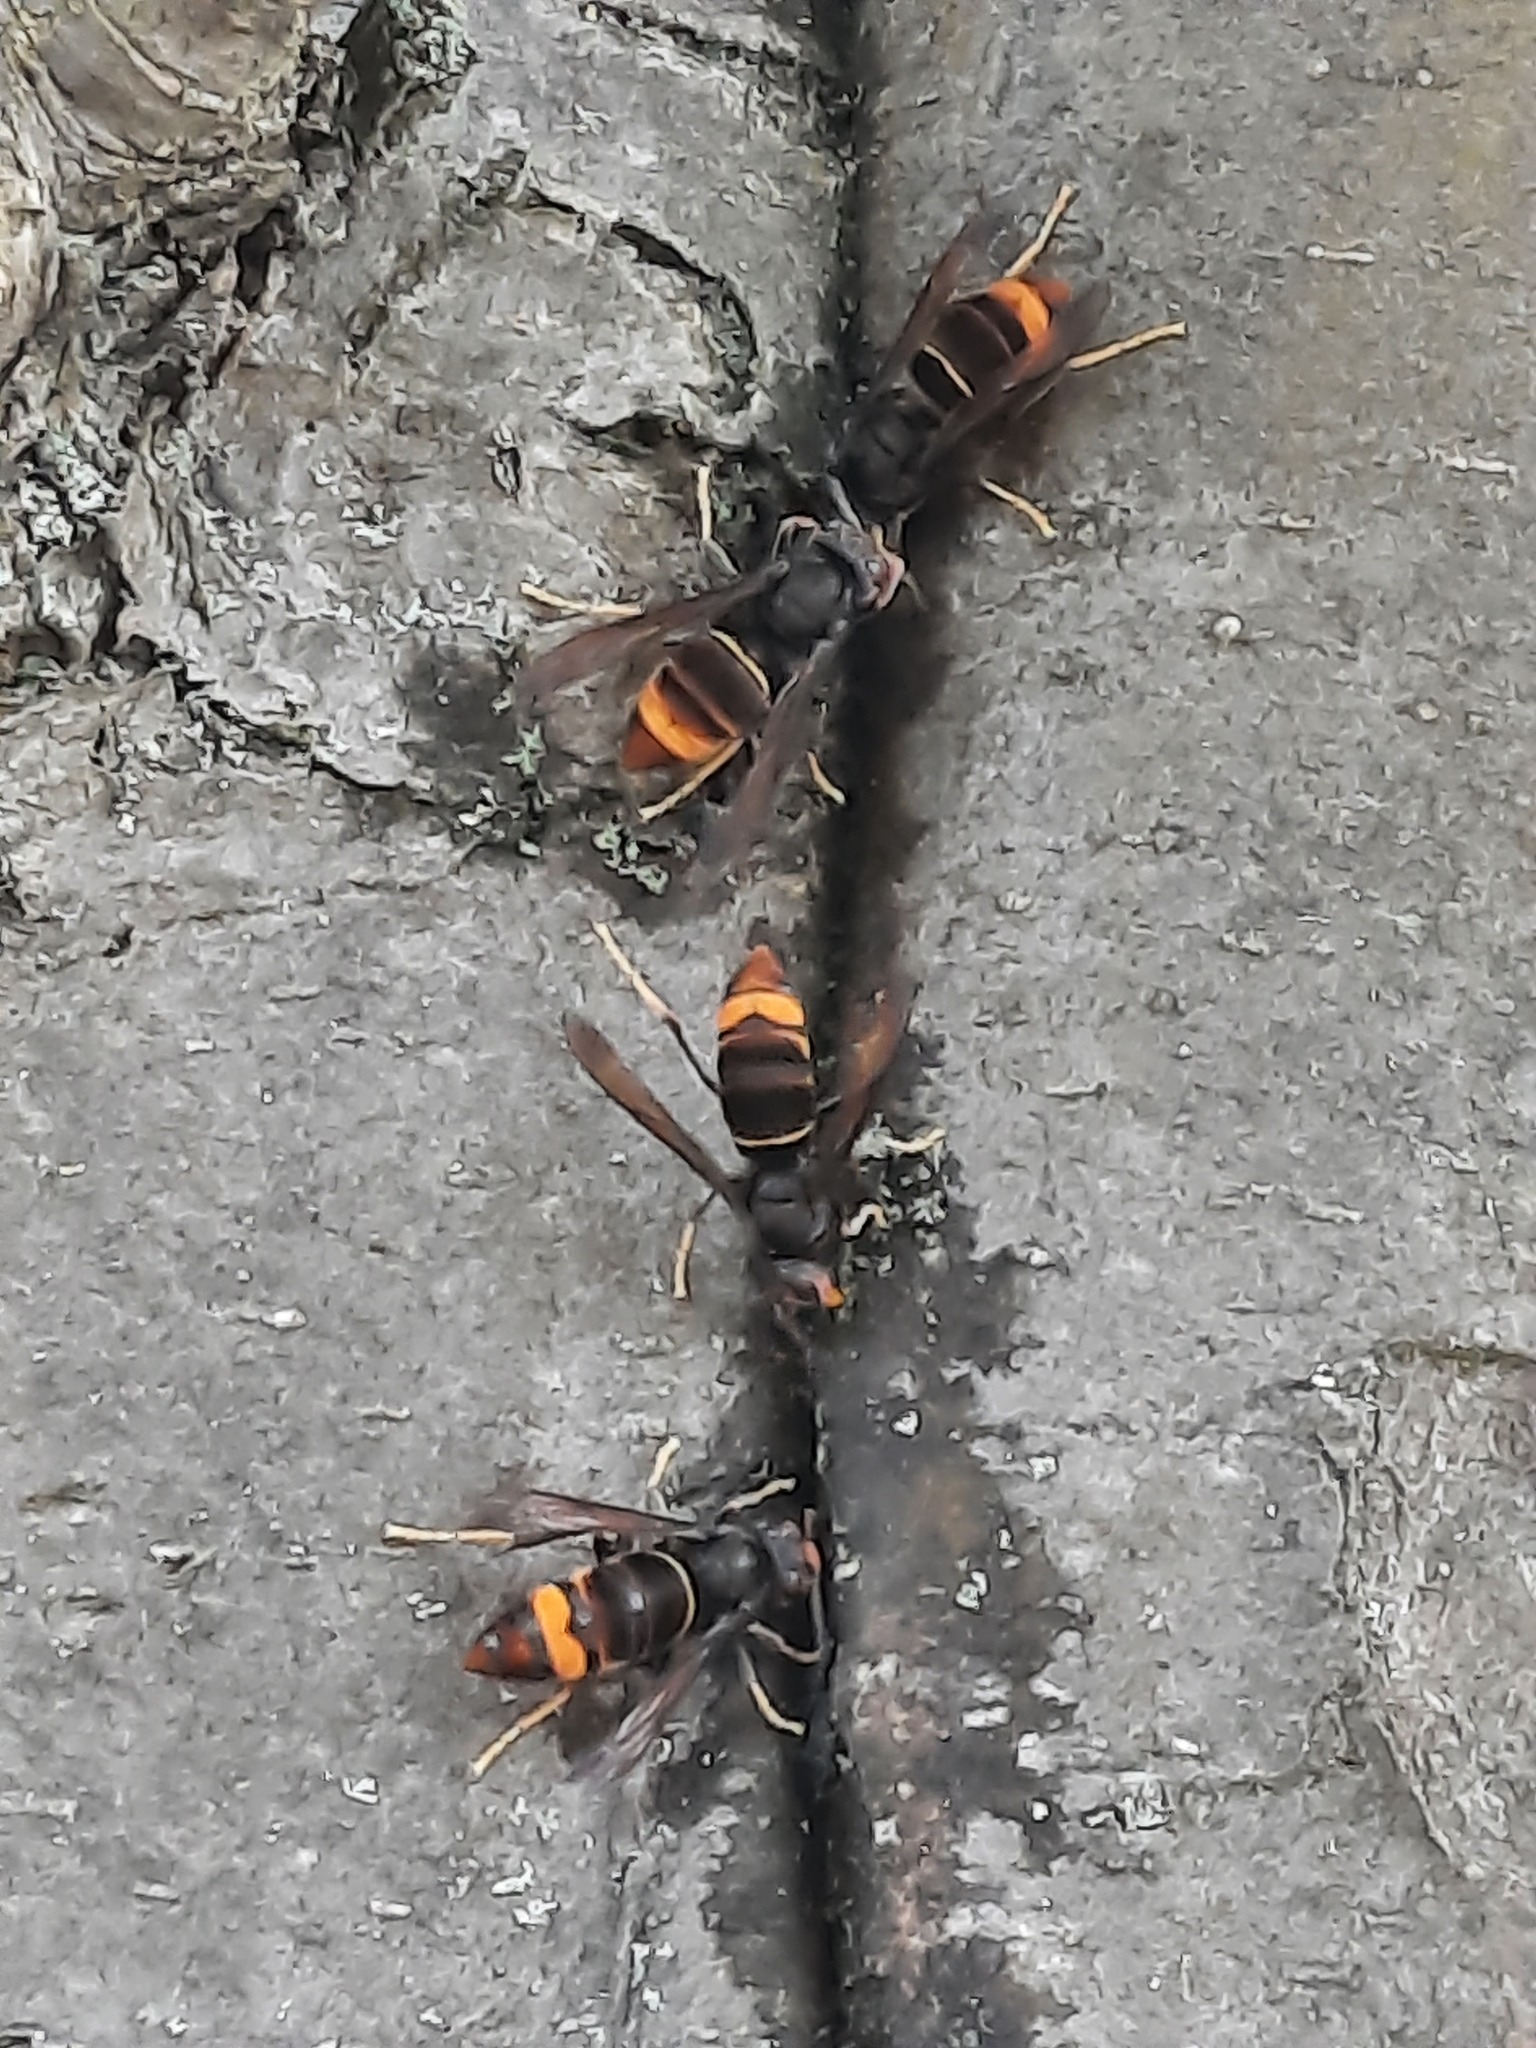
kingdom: Animalia
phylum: Arthropoda
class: Insecta
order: Hymenoptera
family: Vespidae
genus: Vespa
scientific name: Vespa velutina
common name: Asian hornet
